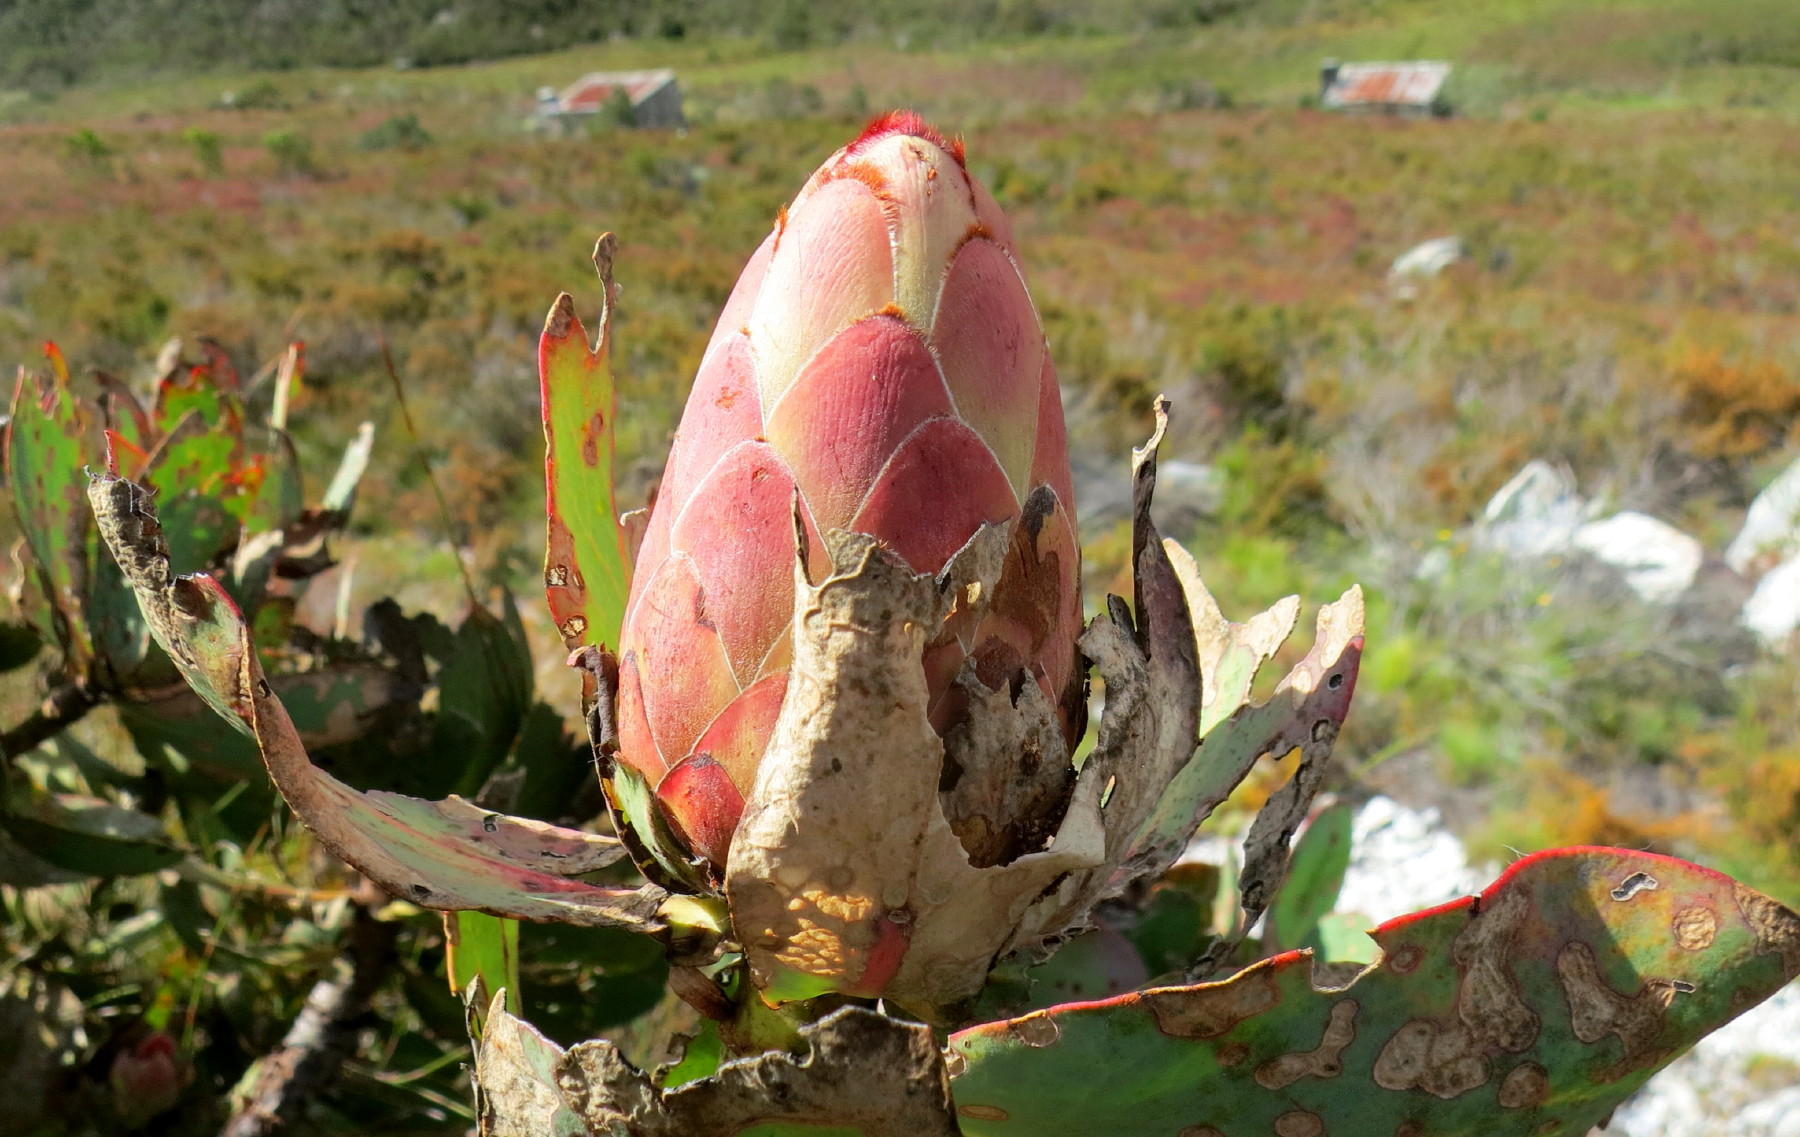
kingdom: Plantae
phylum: Tracheophyta
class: Magnoliopsida
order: Proteales
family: Proteaceae
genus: Protea
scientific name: Protea grandiceps
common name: Red sugarbush
